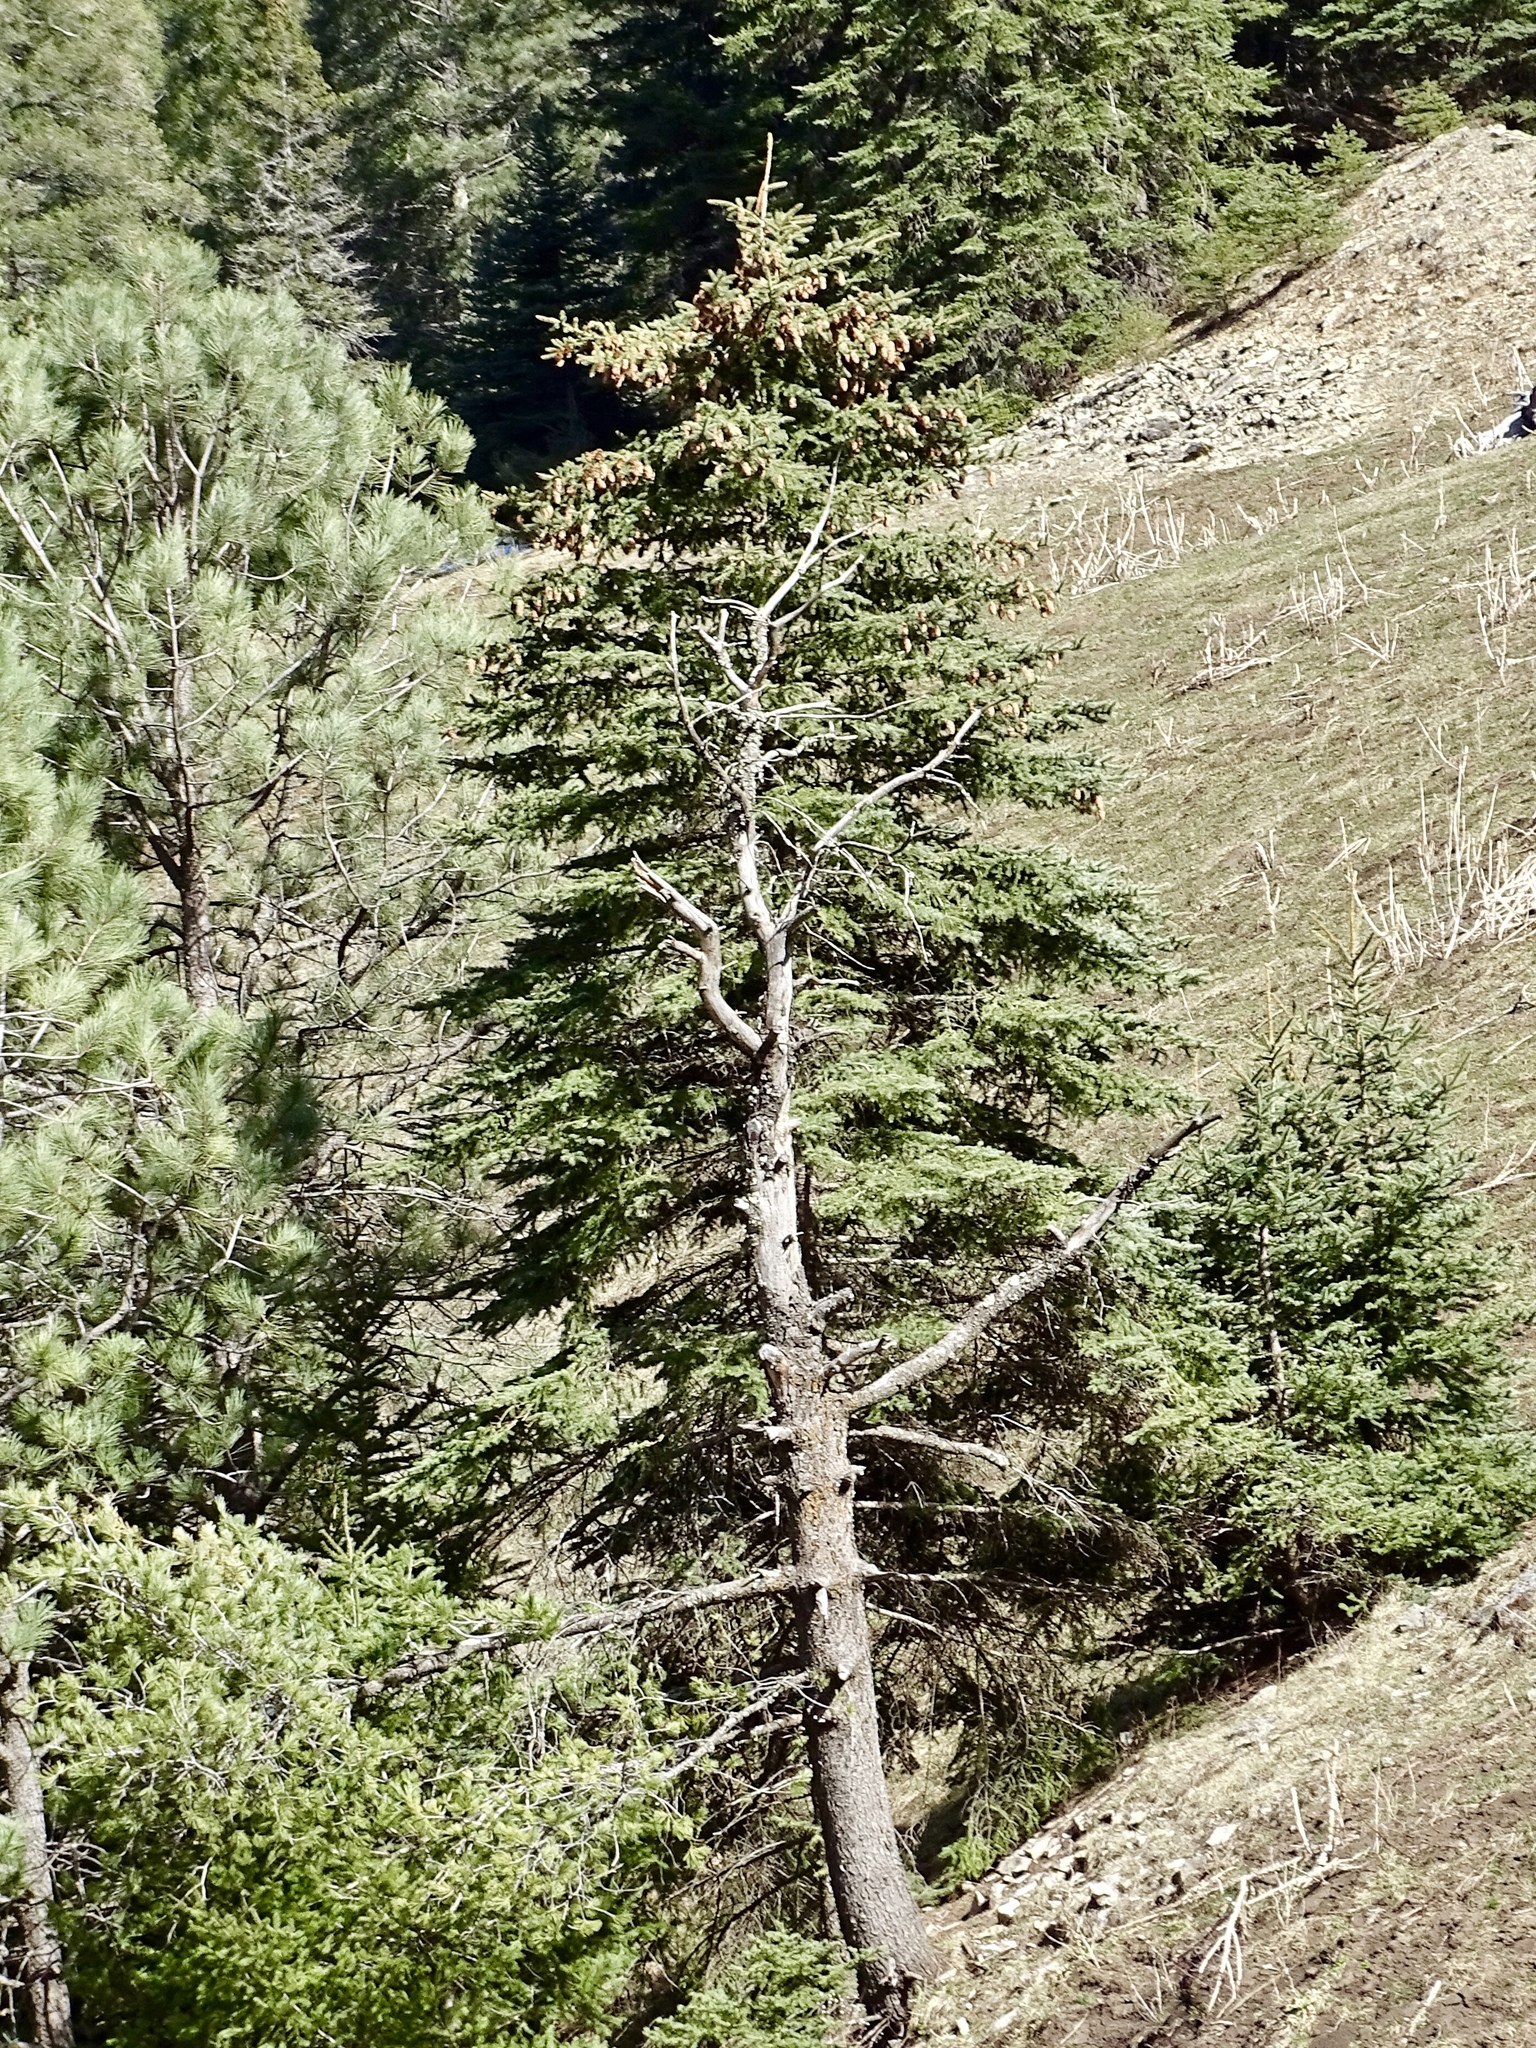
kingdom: Plantae
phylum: Tracheophyta
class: Pinopsida
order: Pinales
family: Pinaceae
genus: Picea
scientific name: Picea engelmannii
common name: Engelmann spruce
